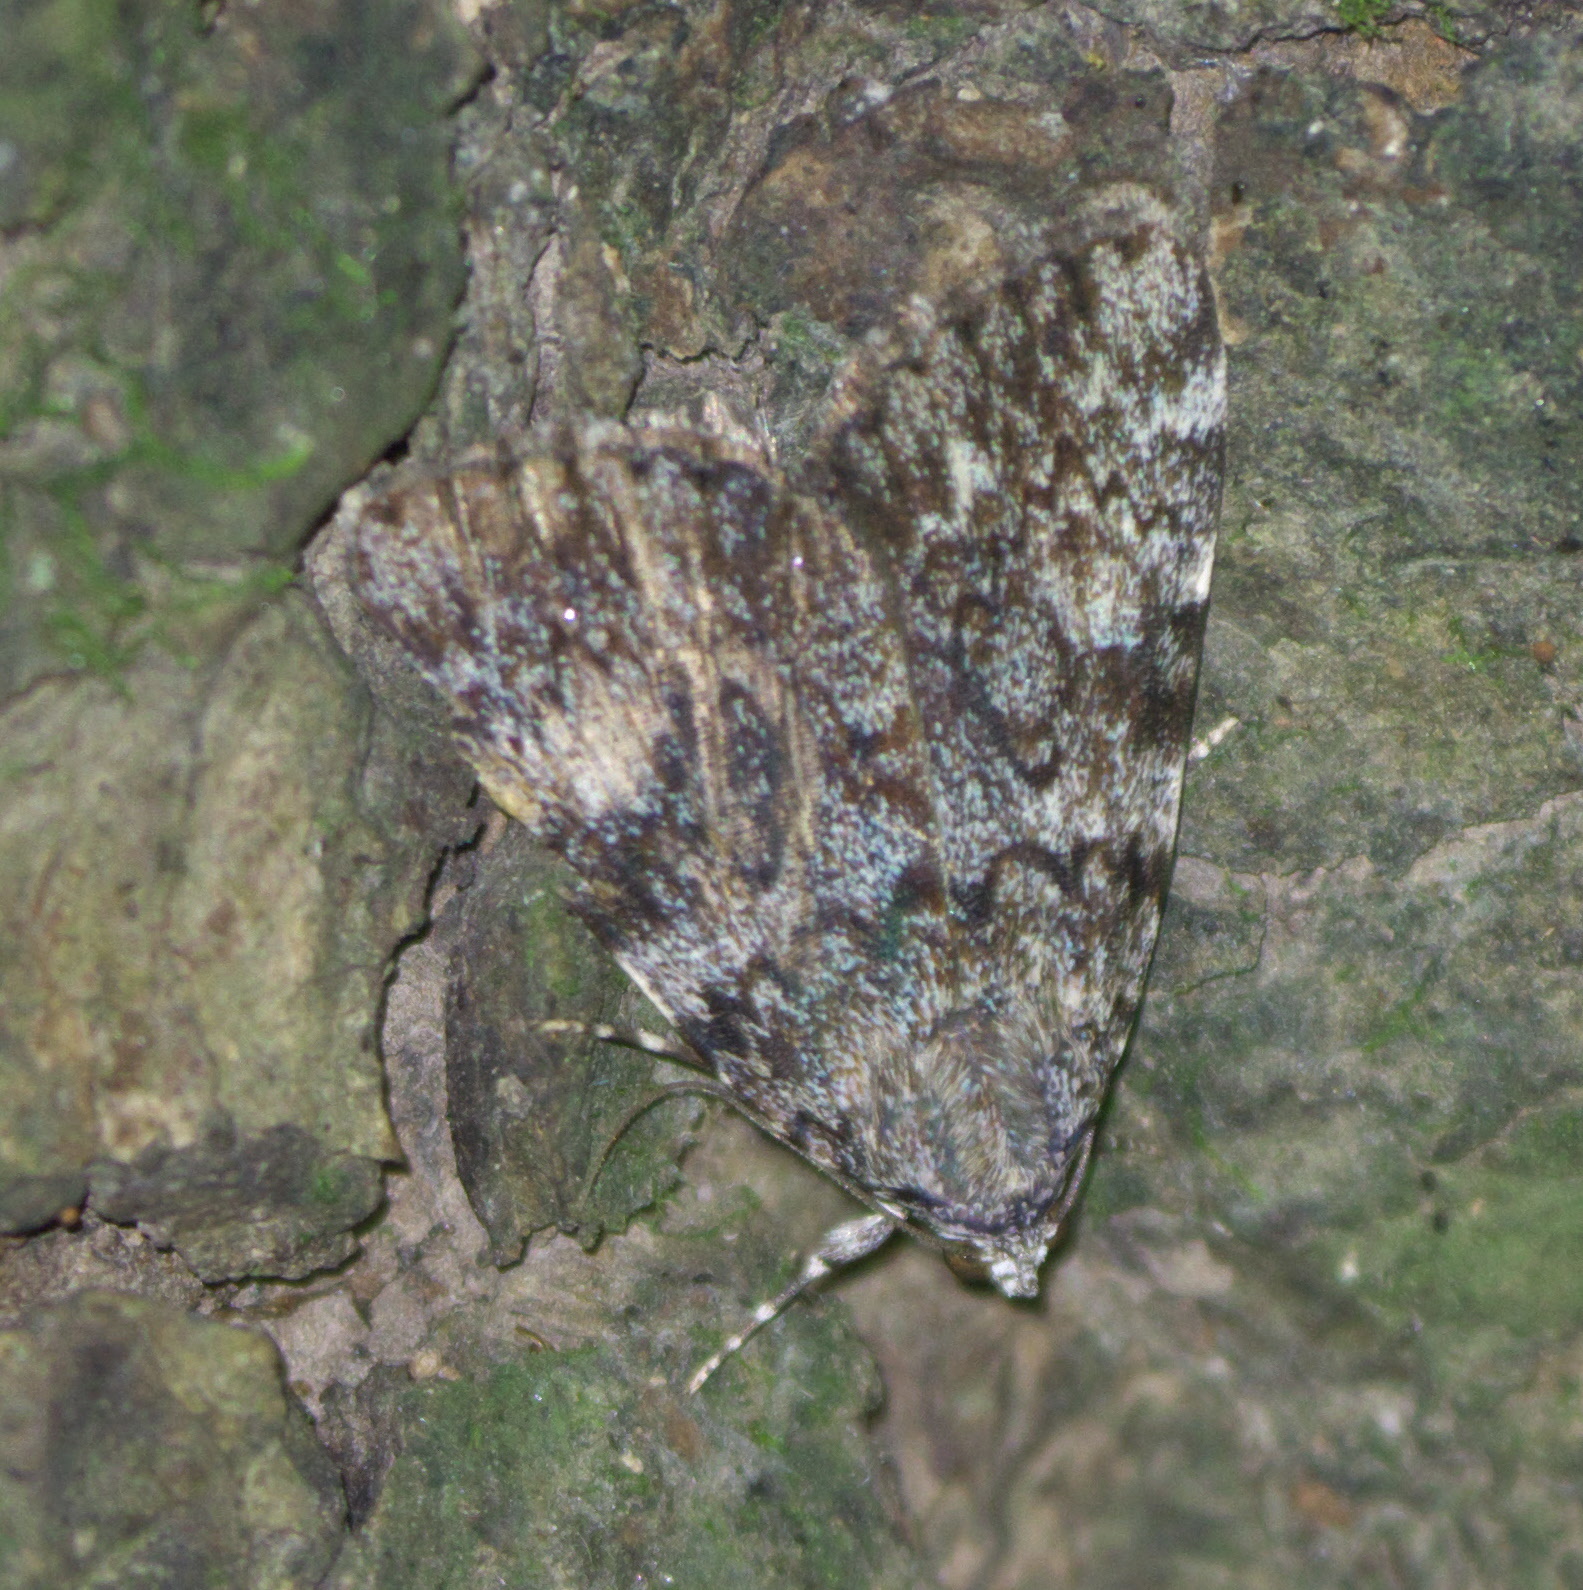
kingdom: Animalia
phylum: Arthropoda
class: Insecta
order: Lepidoptera
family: Erebidae
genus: Catocala
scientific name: Catocala lineella
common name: Little lined underwing
